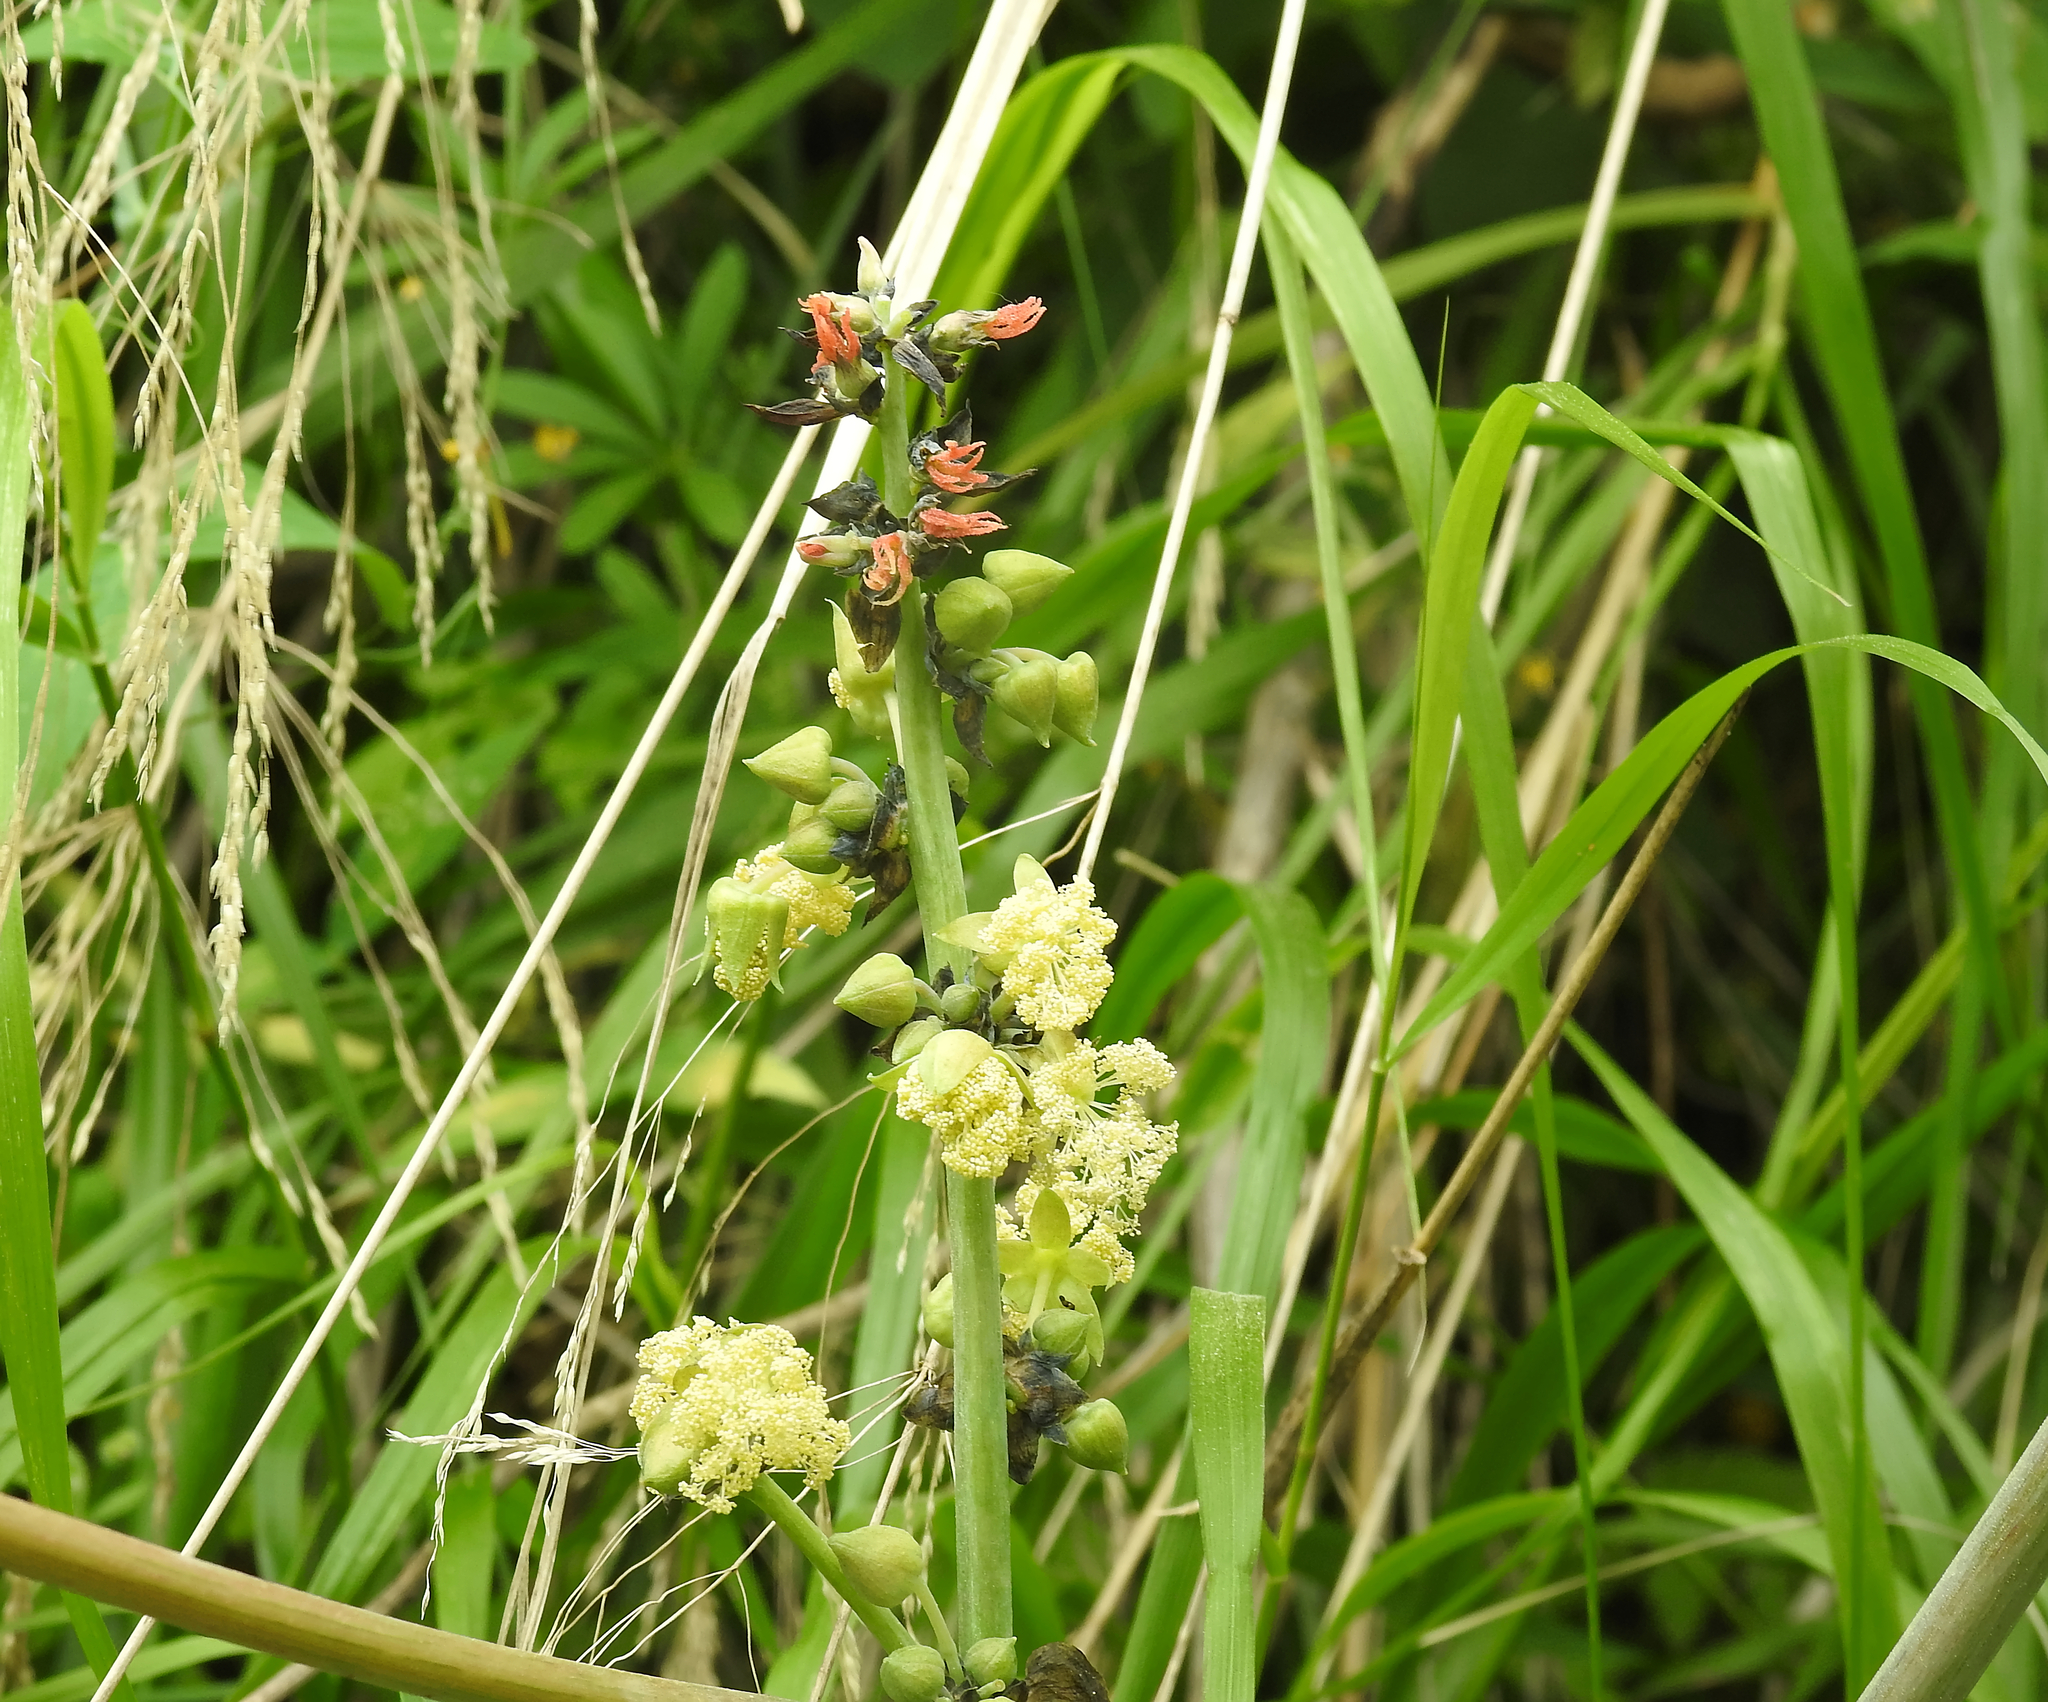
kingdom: Plantae
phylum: Tracheophyta
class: Magnoliopsida
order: Malpighiales
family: Euphorbiaceae
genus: Ricinus
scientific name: Ricinus communis
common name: Castor-oil-plant
